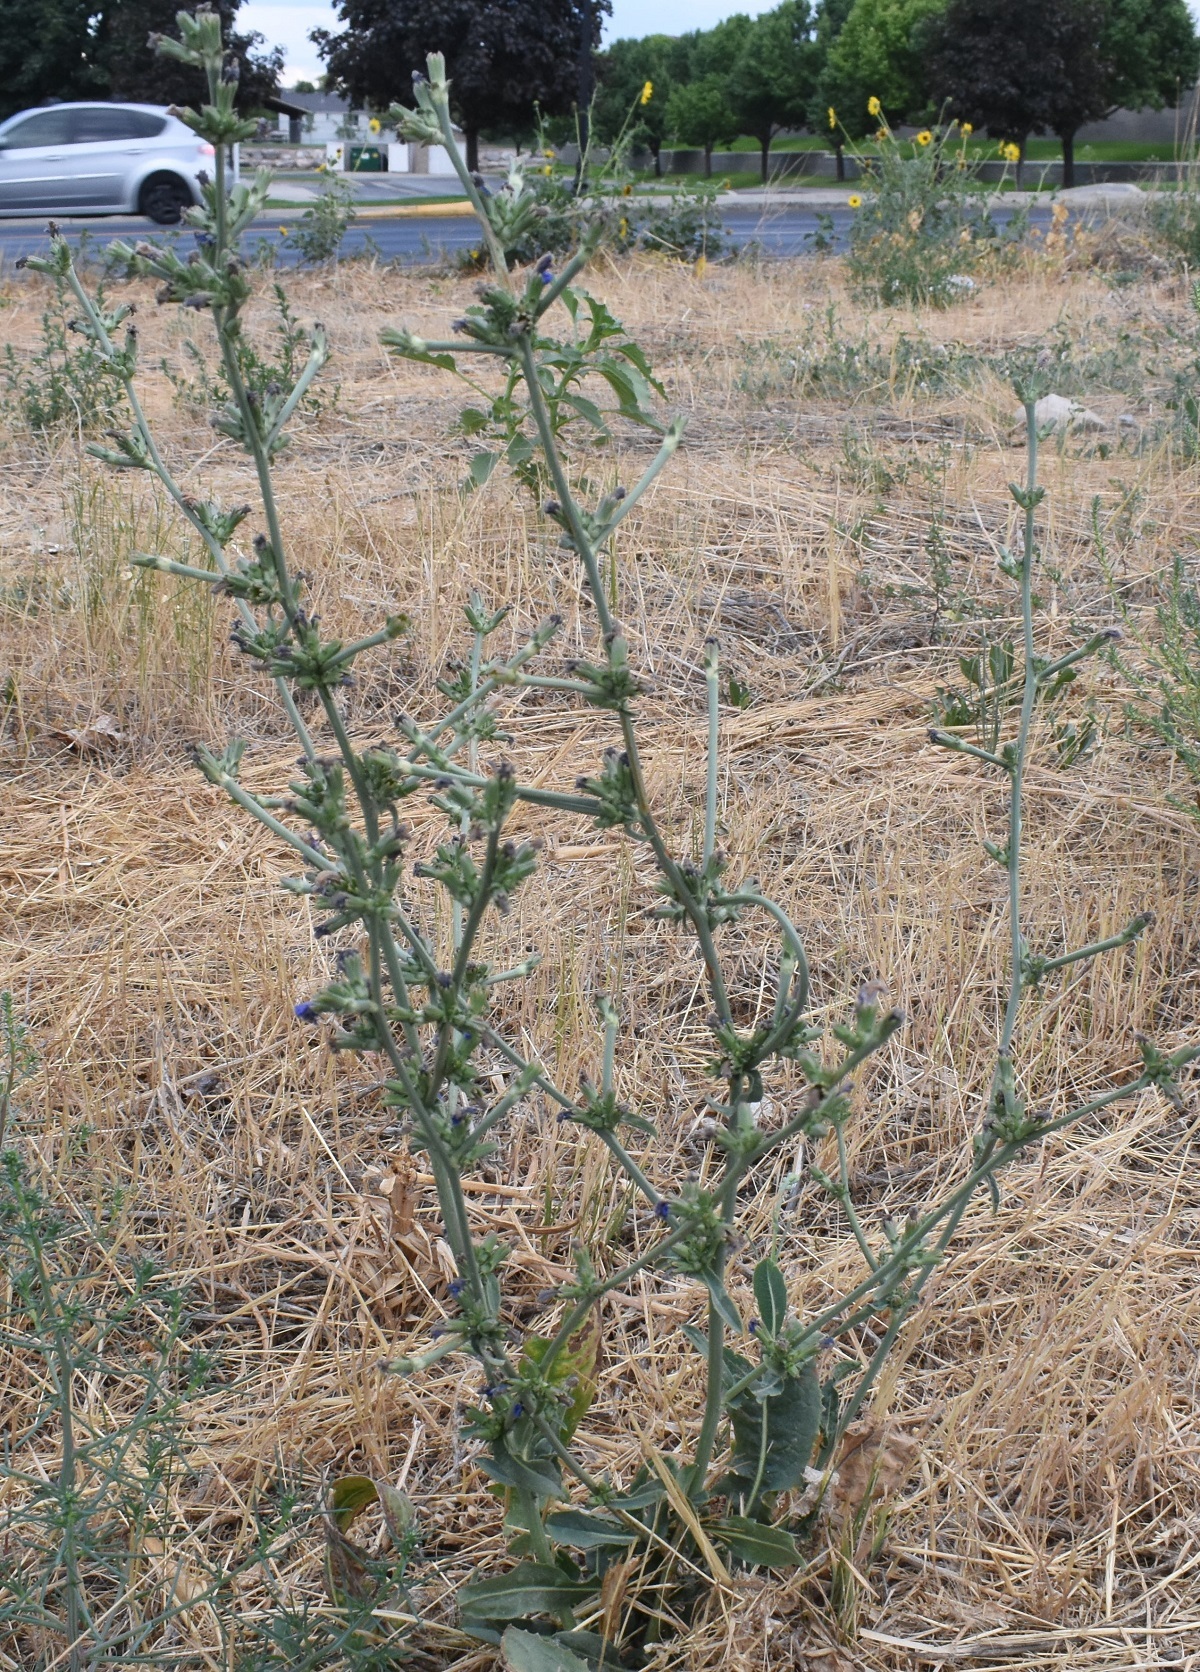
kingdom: Plantae
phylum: Tracheophyta
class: Magnoliopsida
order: Asterales
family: Asteraceae
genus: Cichorium
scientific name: Cichorium intybus
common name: Chicory
